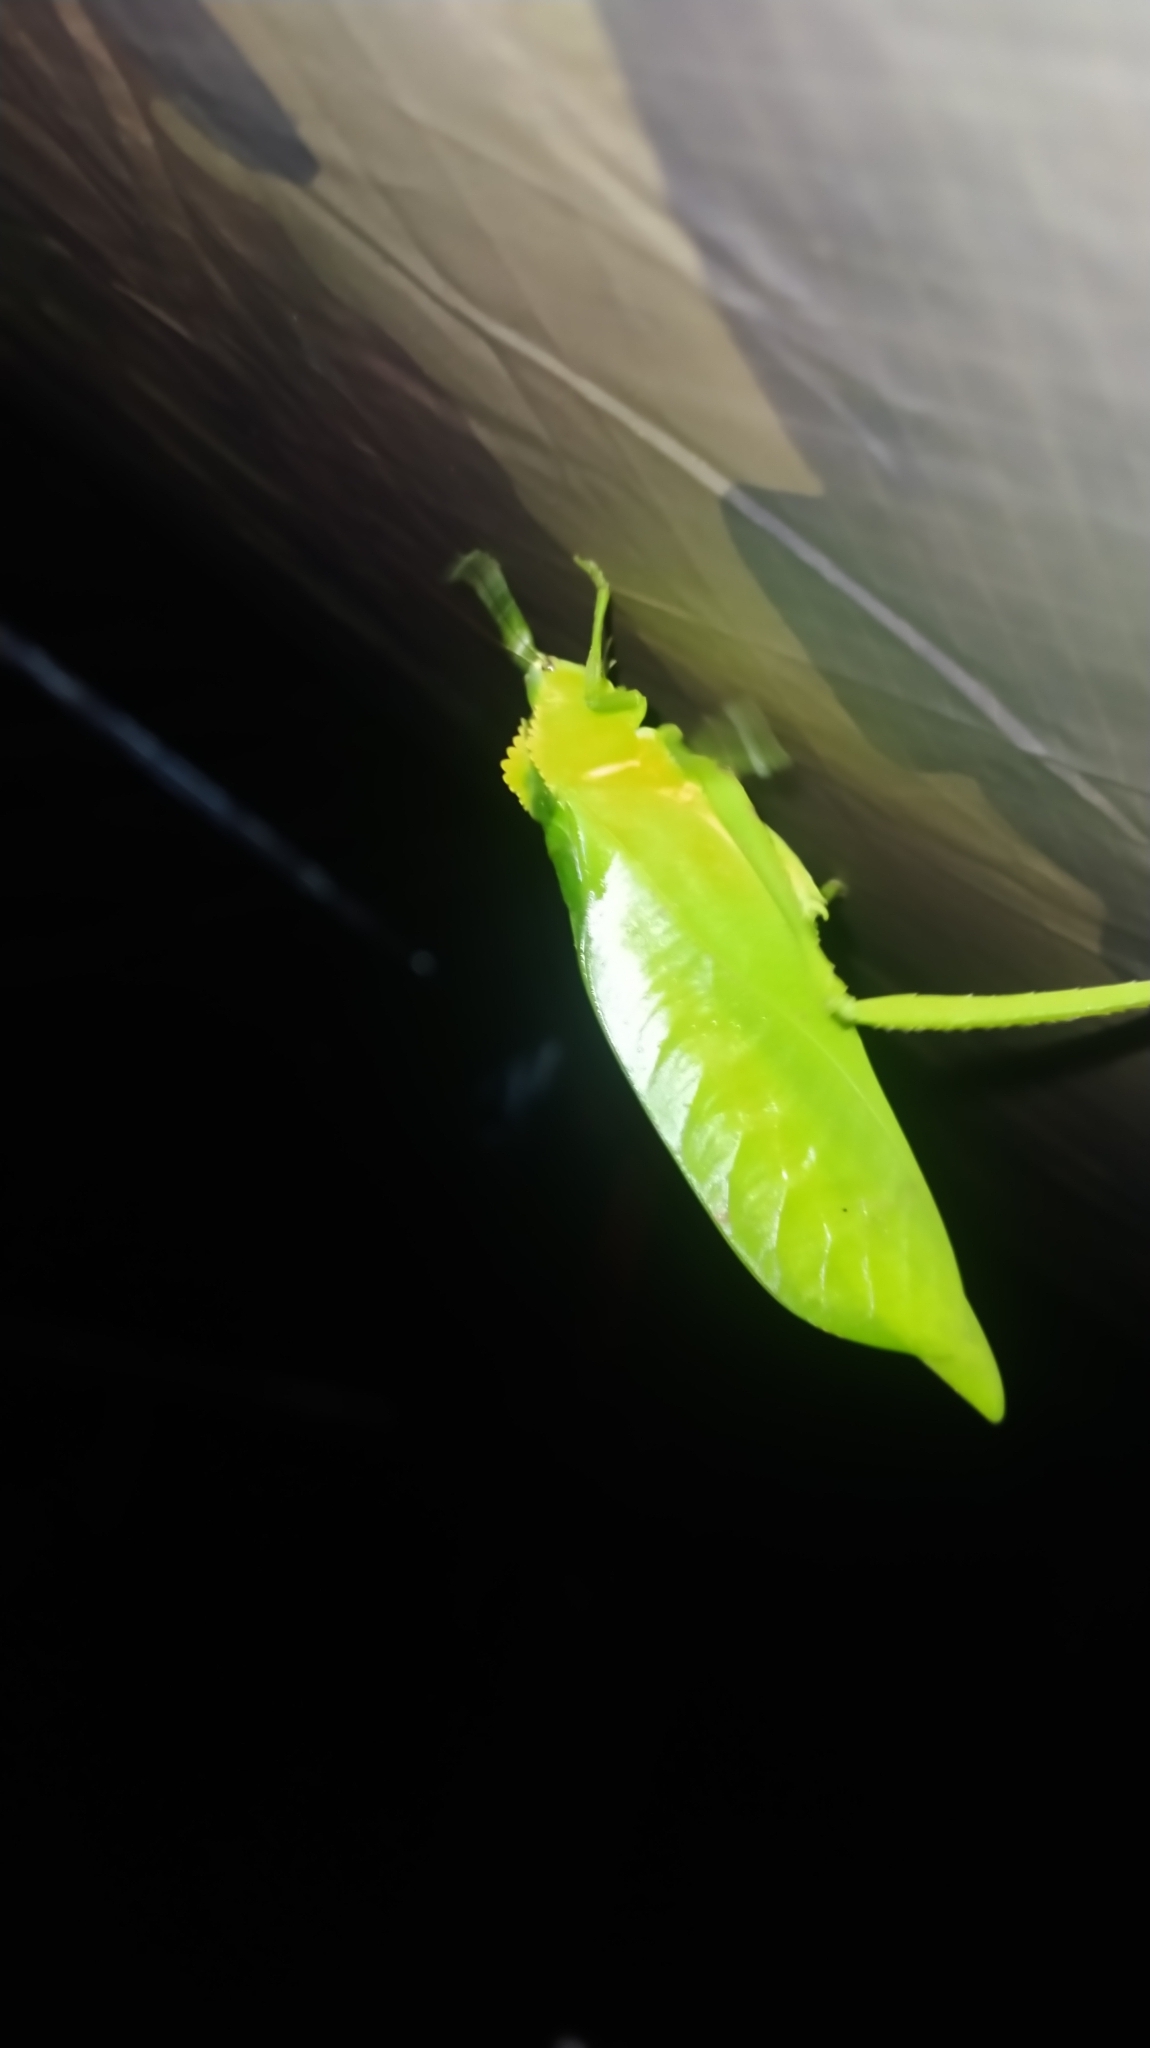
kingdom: Animalia
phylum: Arthropoda
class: Insecta
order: Orthoptera
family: Tettigoniidae
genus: Cnemidophyllum
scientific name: Cnemidophyllum citrifolium
